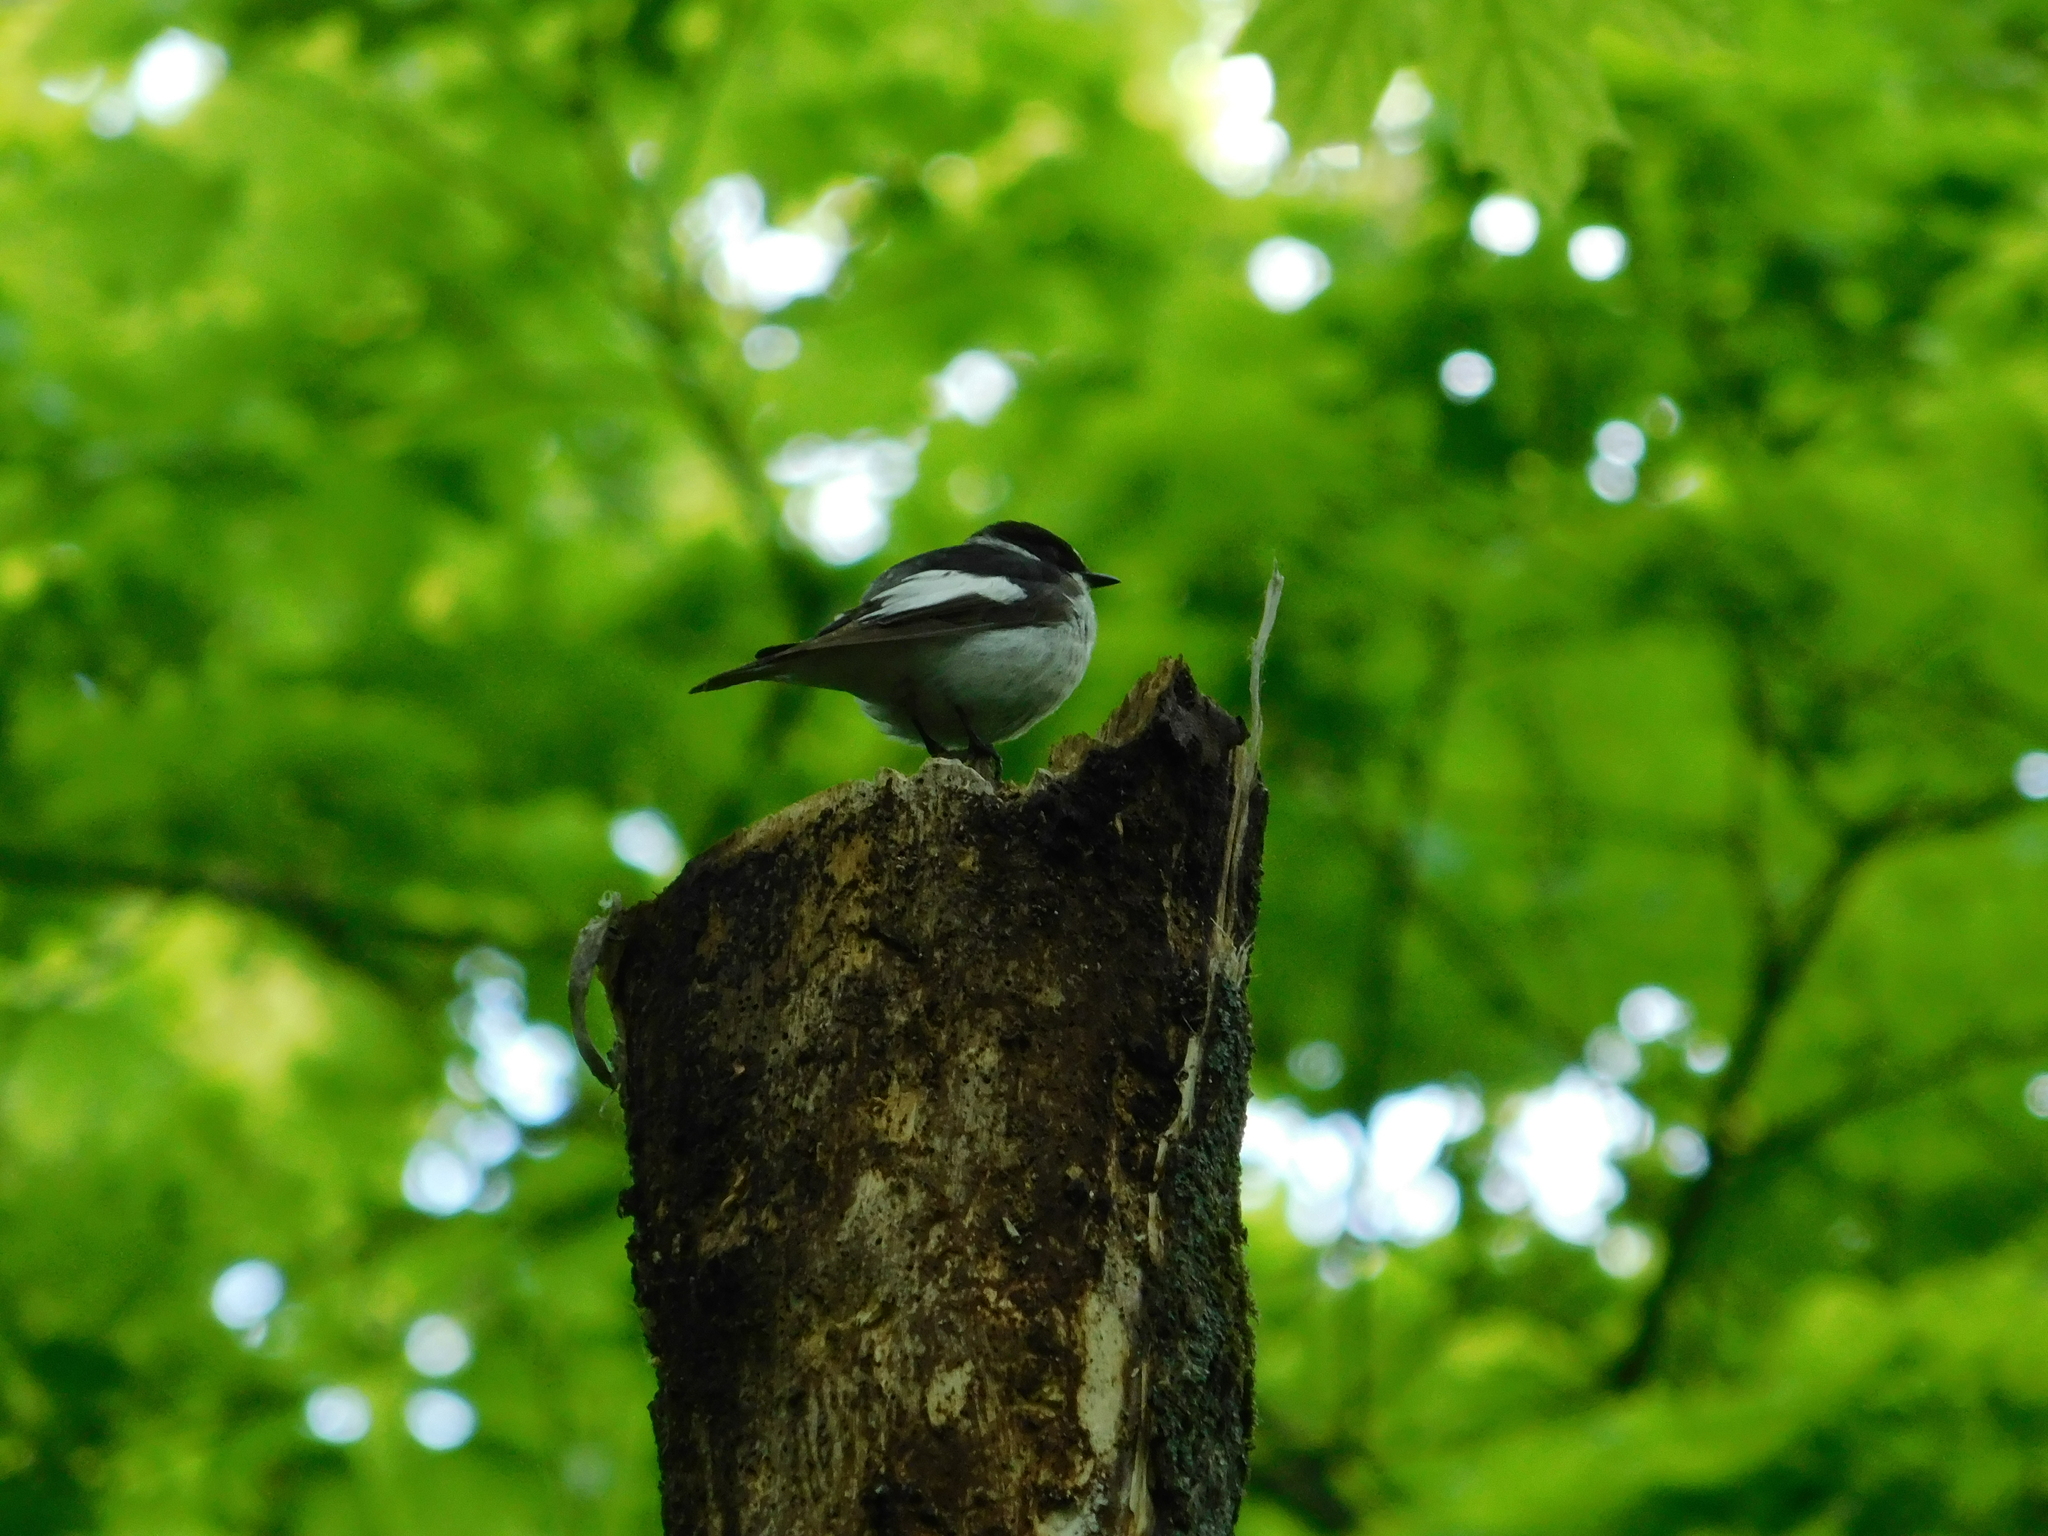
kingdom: Animalia
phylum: Chordata
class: Aves
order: Passeriformes
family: Muscicapidae
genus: Ficedula
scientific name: Ficedula albicollis
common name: Collared flycatcher
